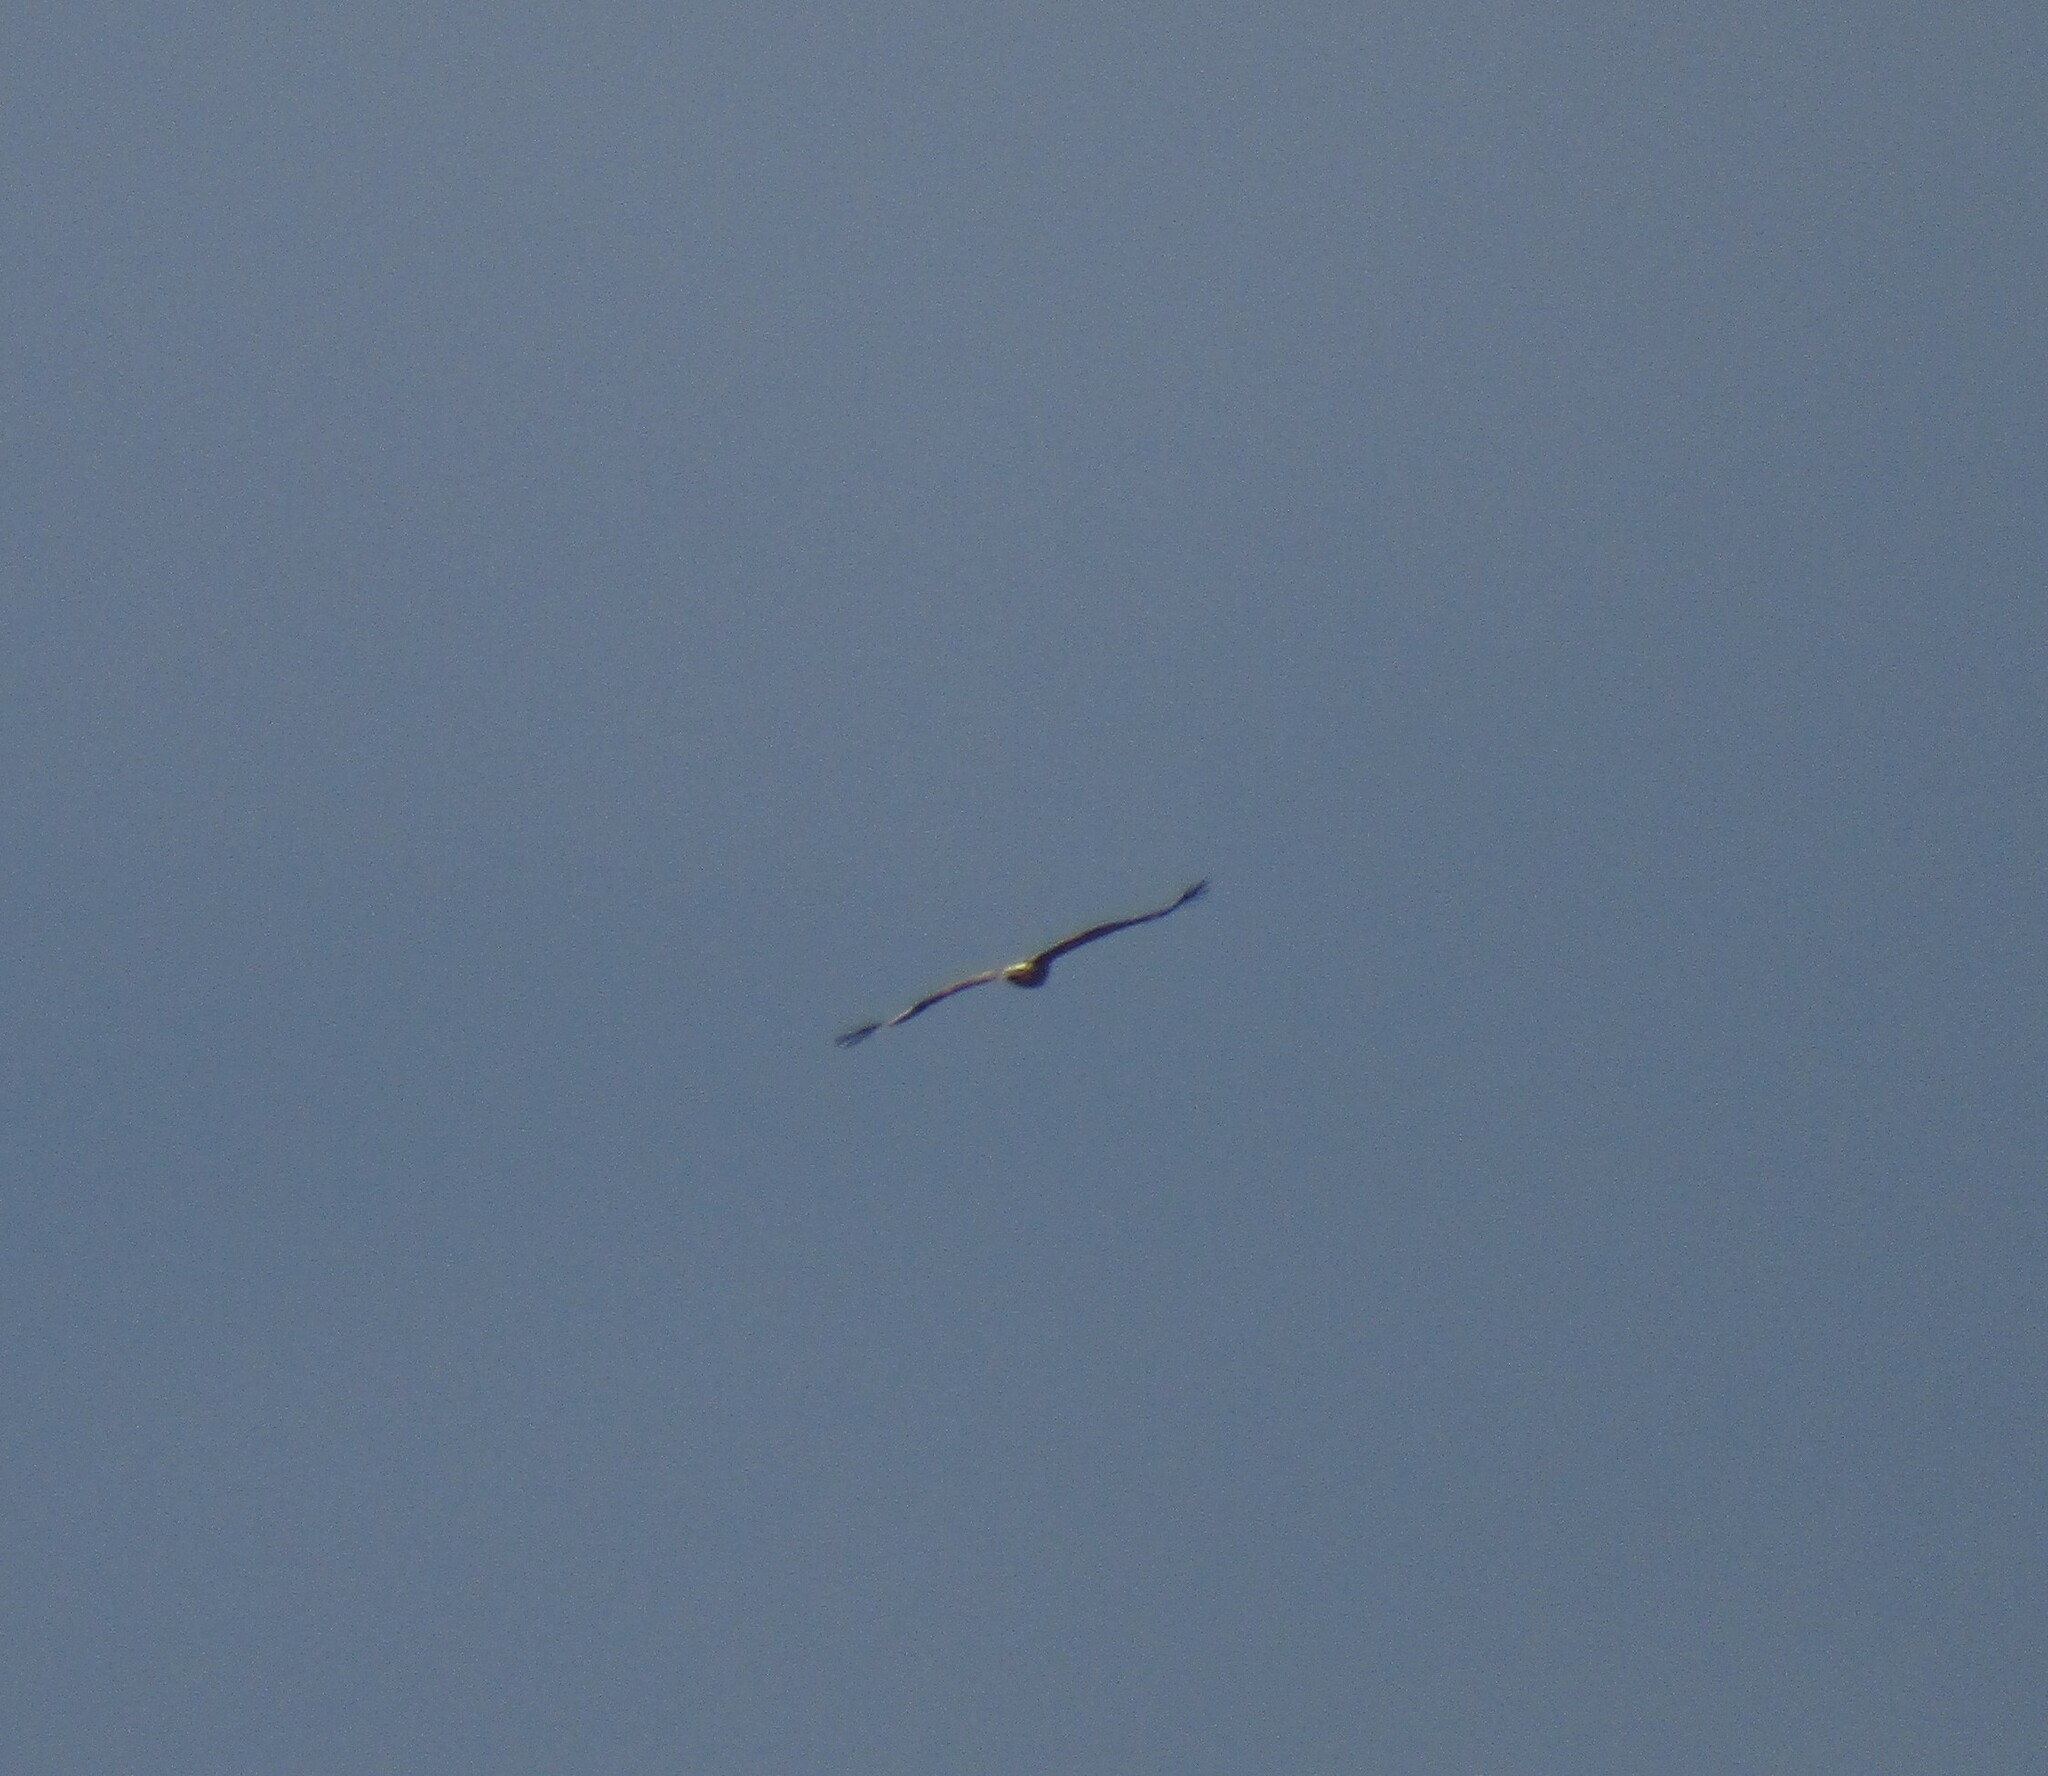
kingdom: Animalia
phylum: Chordata
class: Aves
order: Accipitriformes
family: Accipitridae
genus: Aquila
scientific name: Aquila pomarina
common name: Lesser spotted eagle
